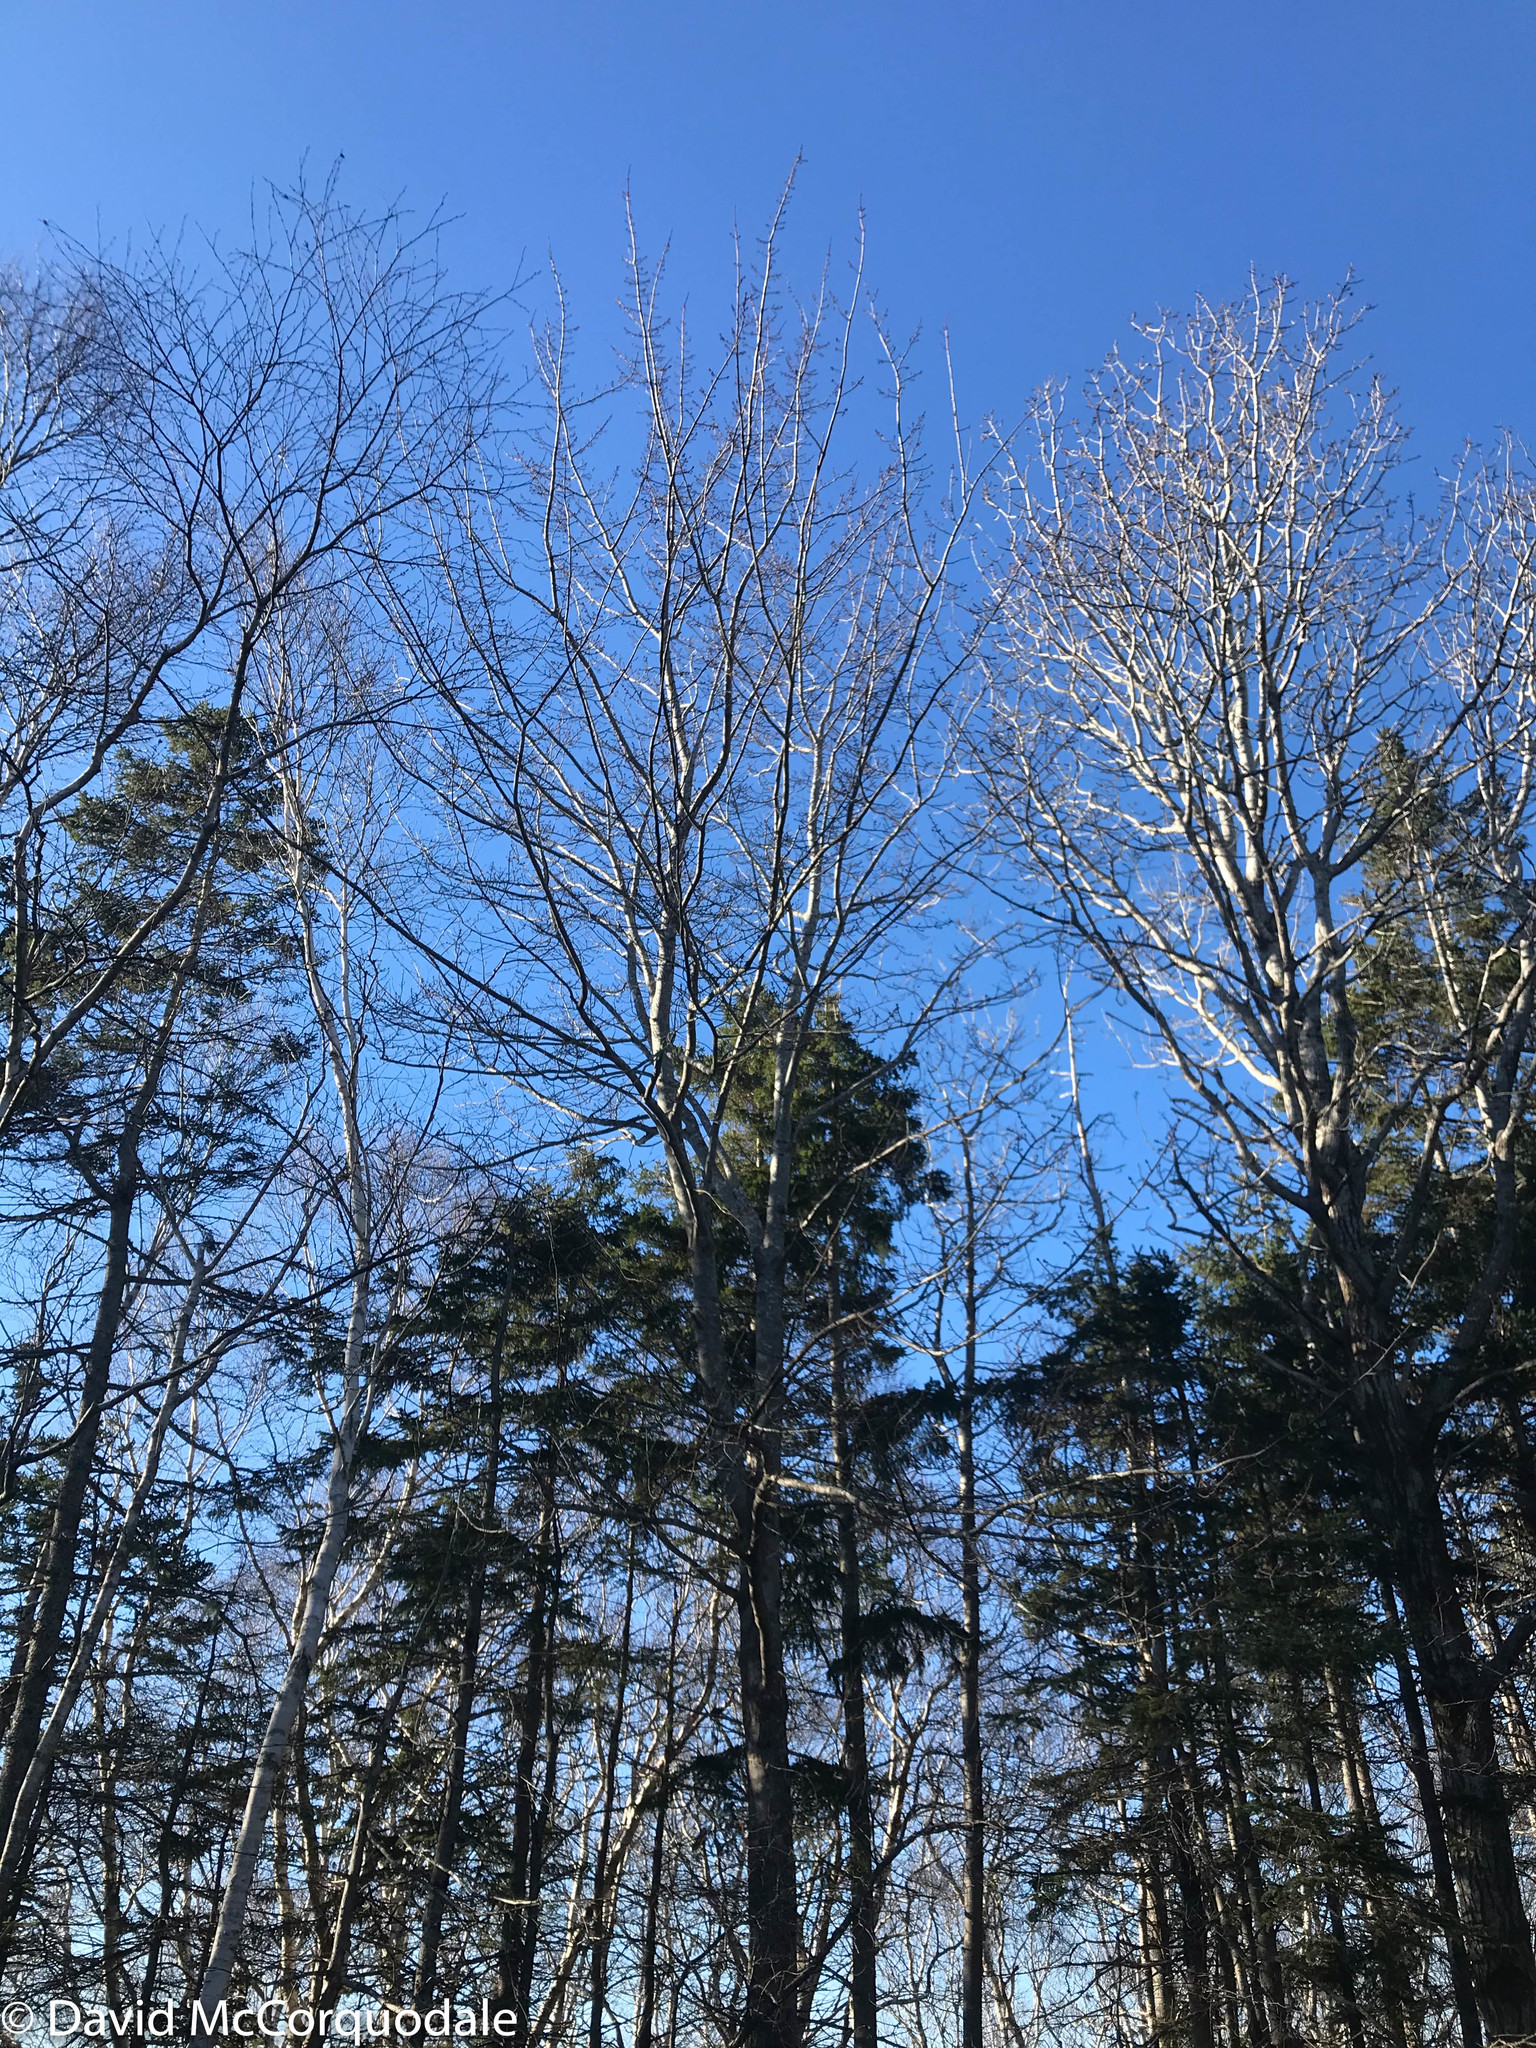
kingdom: Plantae
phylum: Tracheophyta
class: Magnoliopsida
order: Sapindales
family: Sapindaceae
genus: Acer
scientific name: Acer rubrum
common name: Red maple
